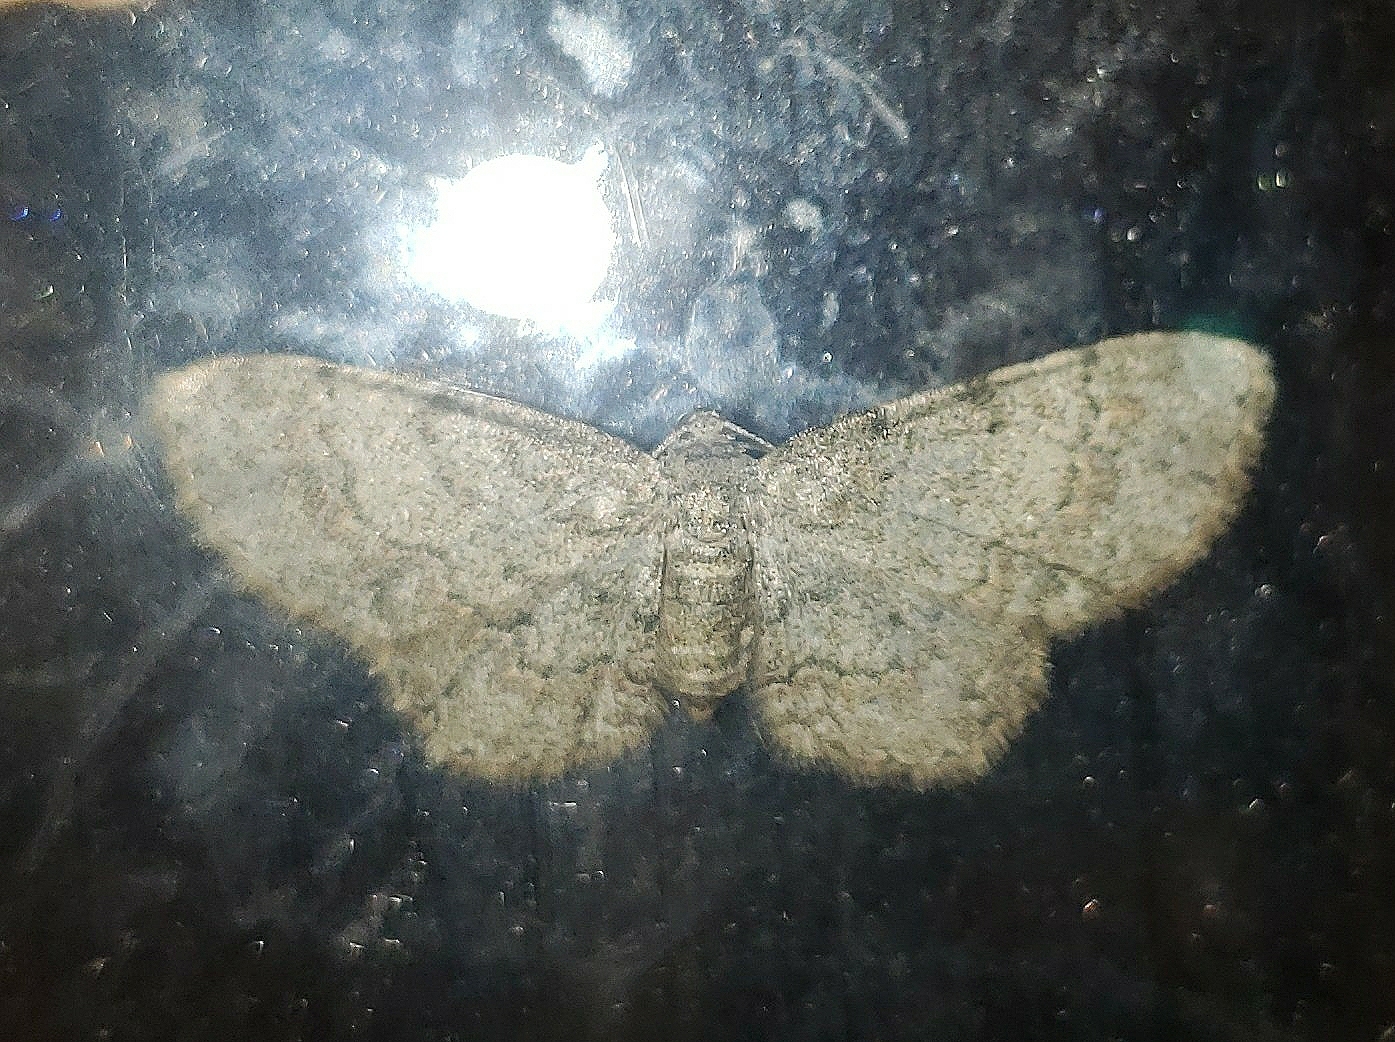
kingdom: Animalia
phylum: Arthropoda
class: Insecta
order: Lepidoptera
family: Geometridae
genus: Glenoides
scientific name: Glenoides texanaria
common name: Texas gray
